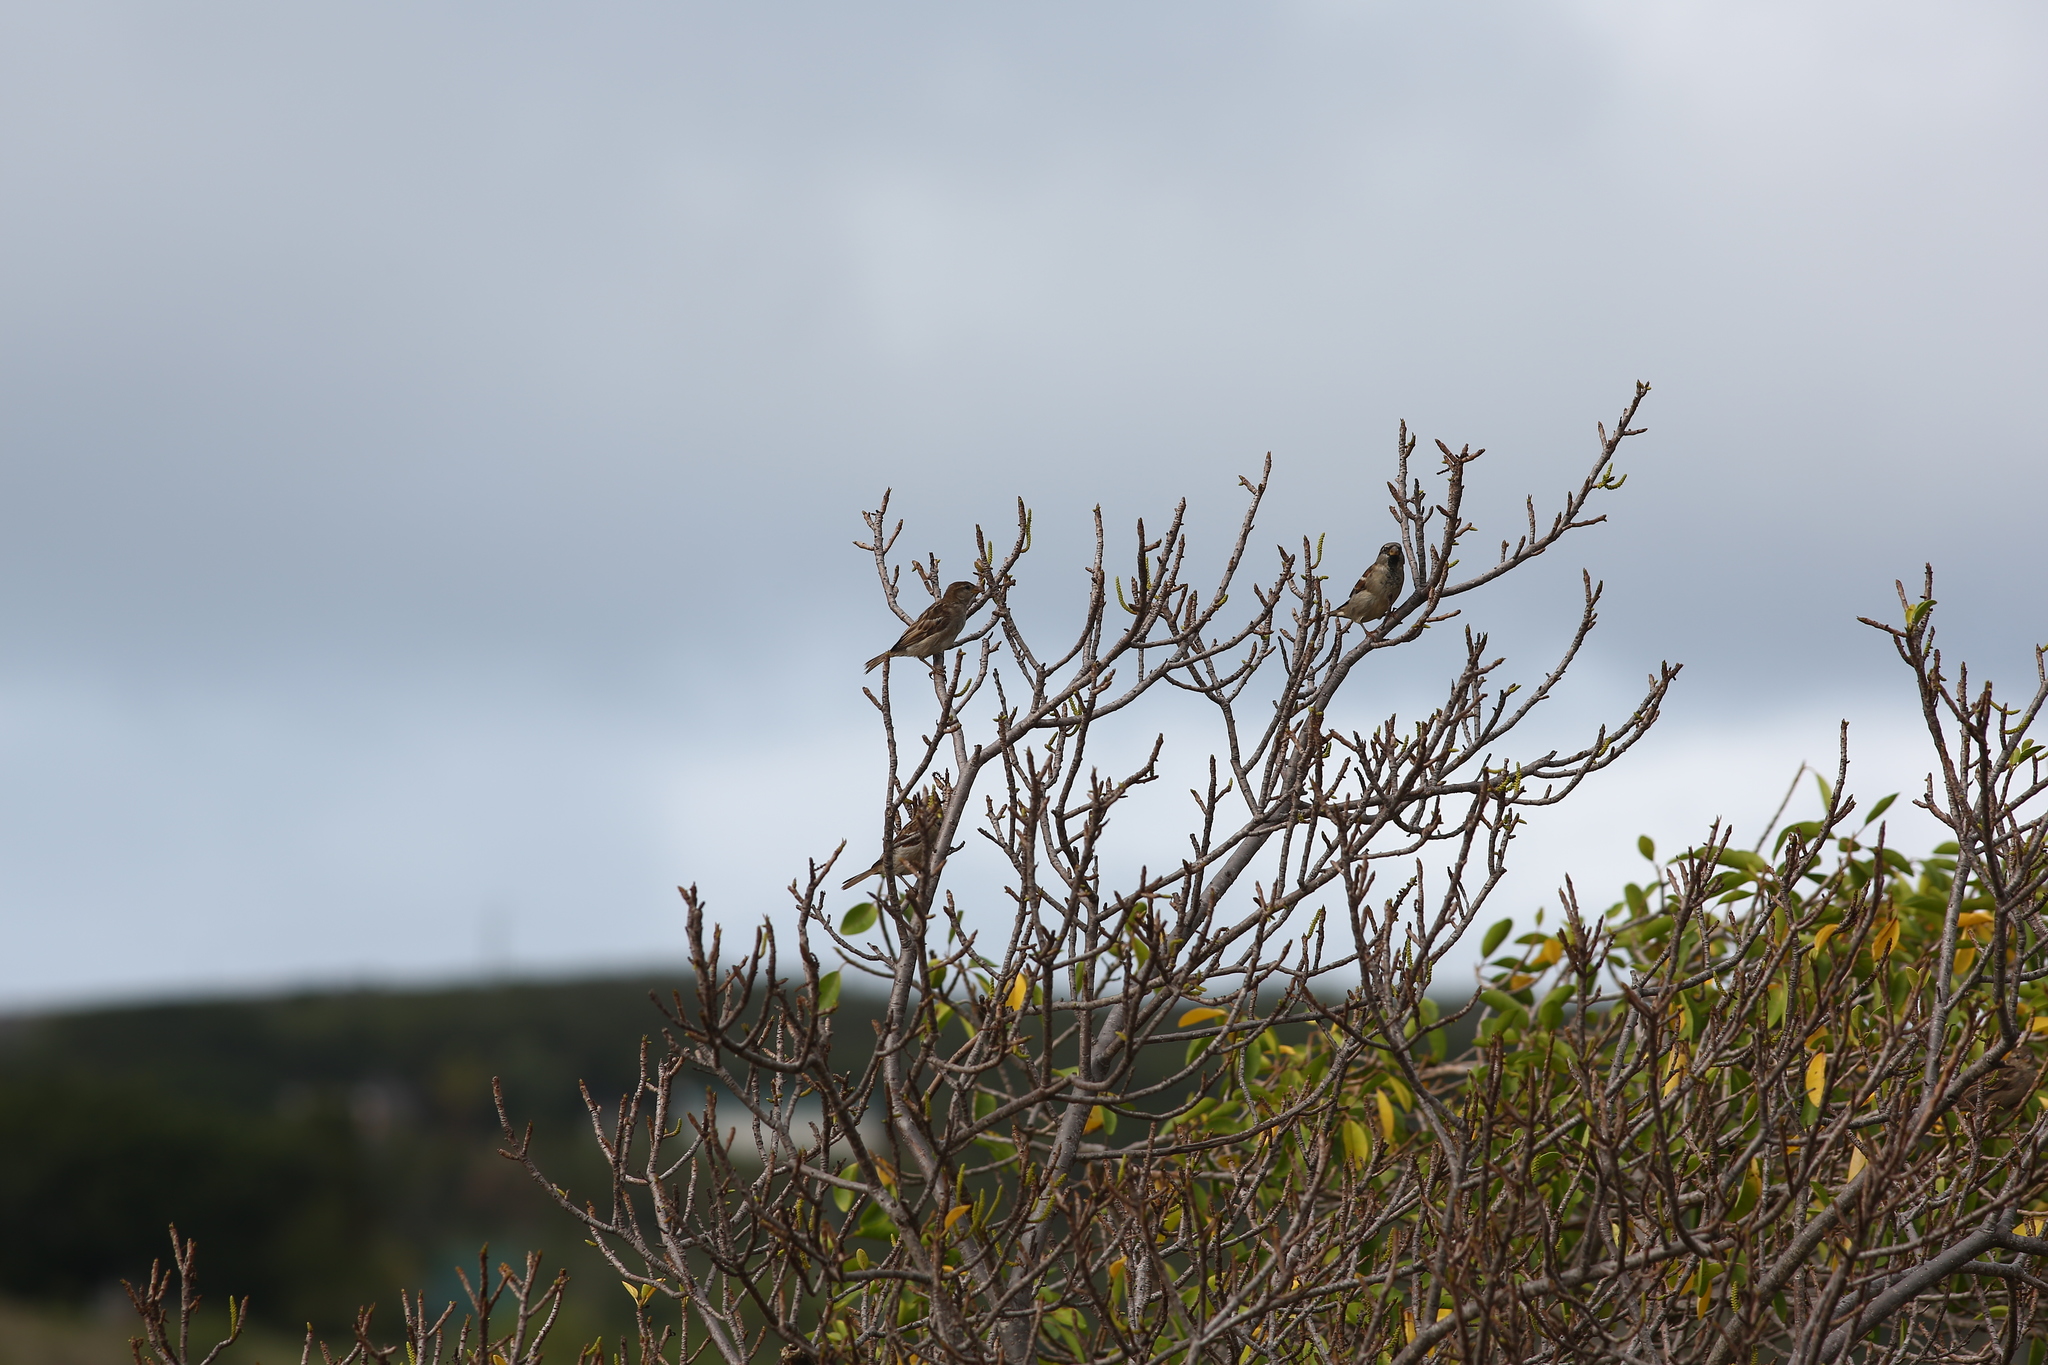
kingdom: Animalia
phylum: Chordata
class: Aves
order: Passeriformes
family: Passeridae
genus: Passer
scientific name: Passer domesticus
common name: House sparrow
